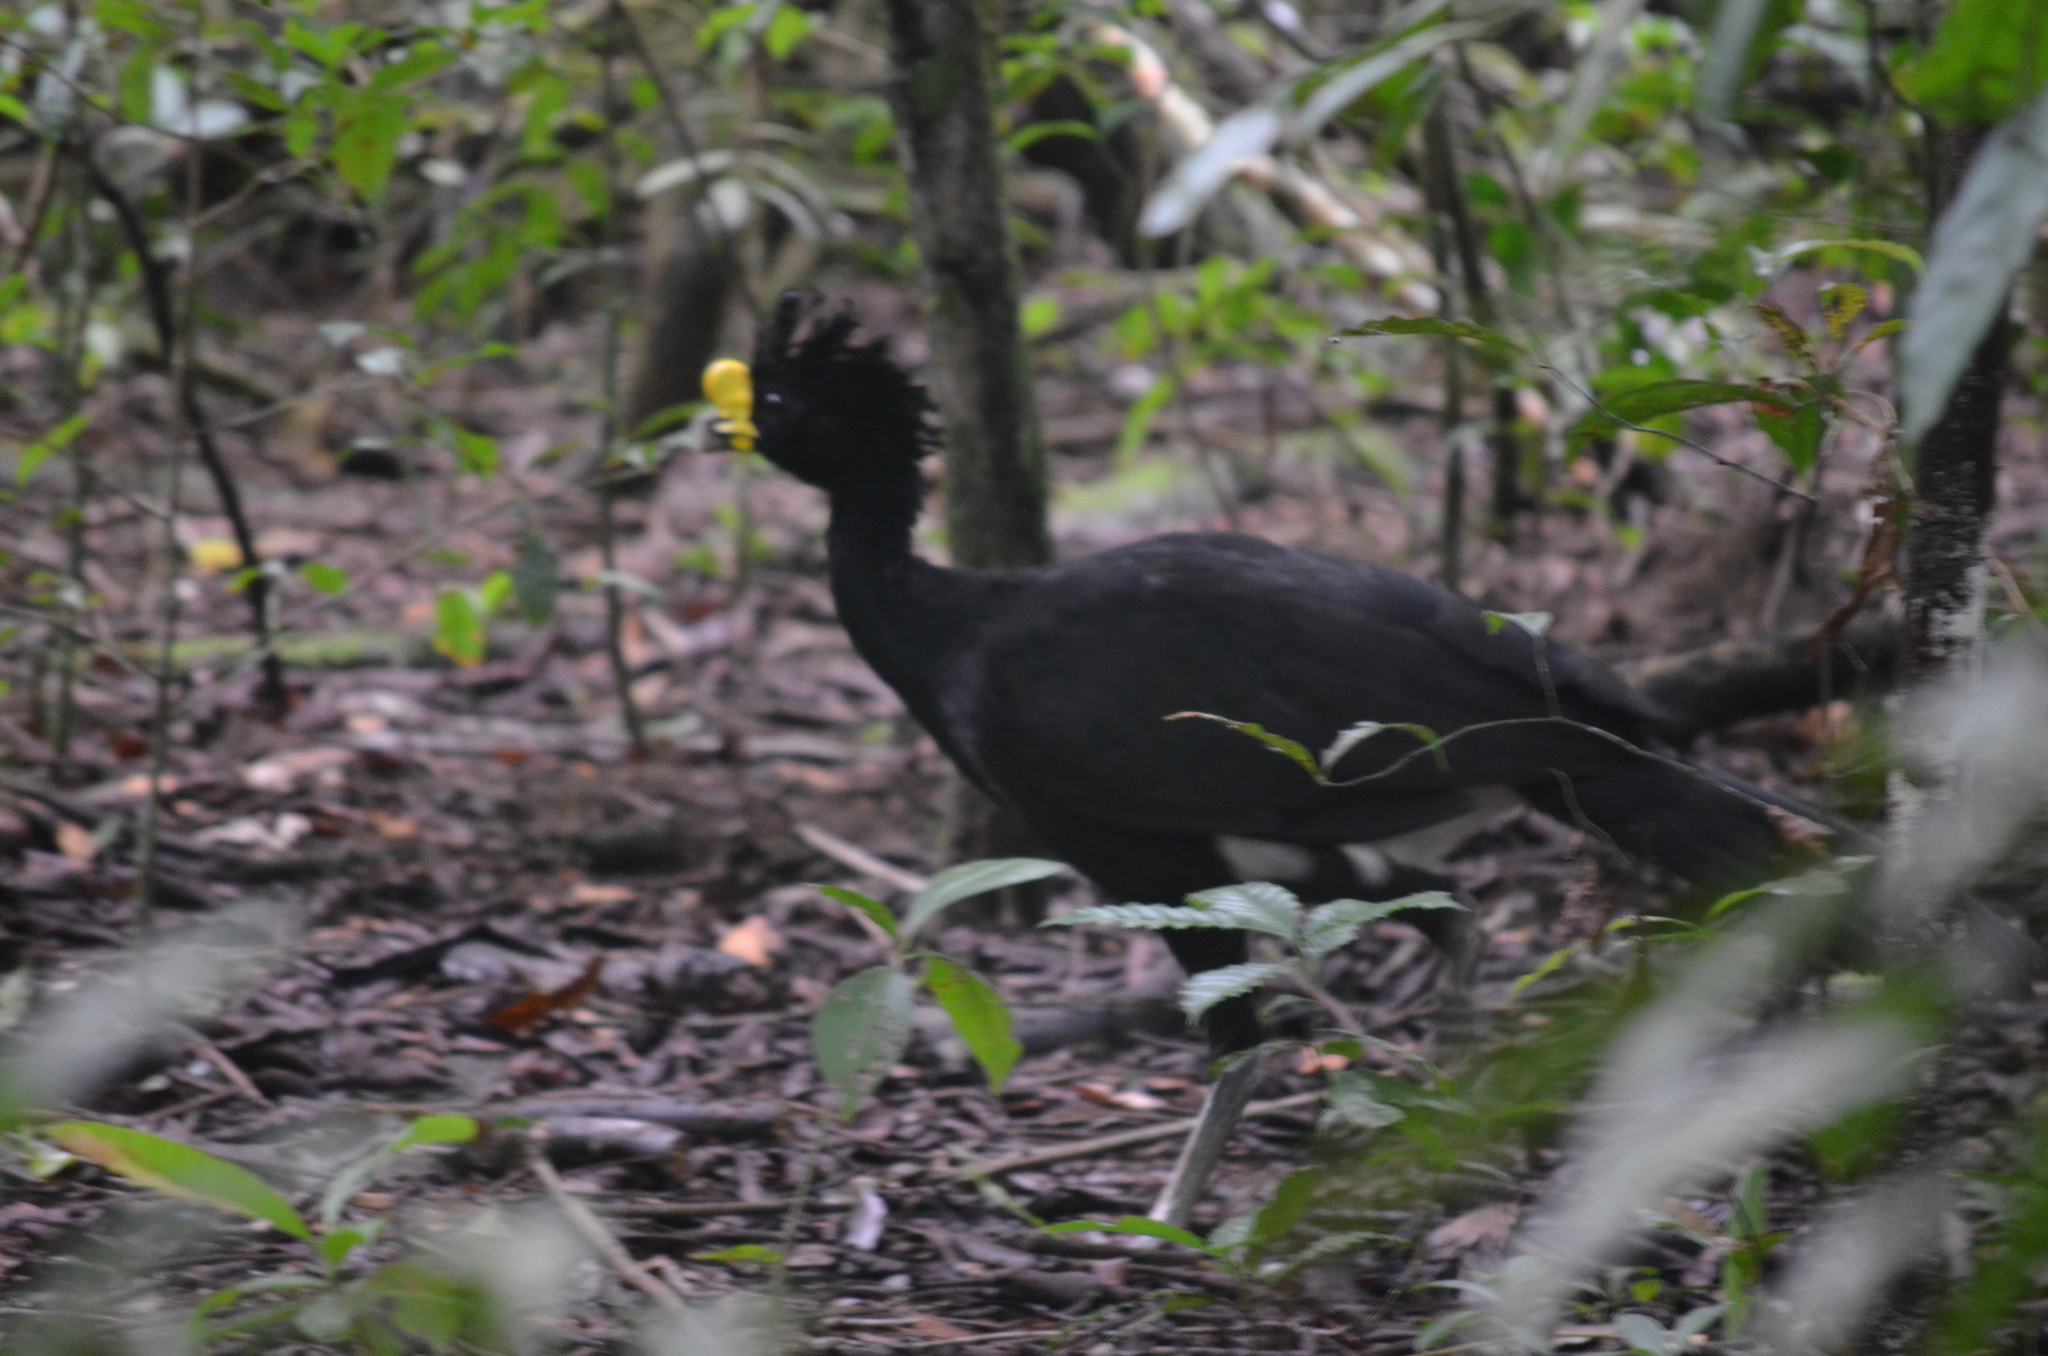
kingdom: Animalia
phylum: Chordata
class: Aves
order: Galliformes
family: Cracidae
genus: Crax
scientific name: Crax rubra
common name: Great curassow
